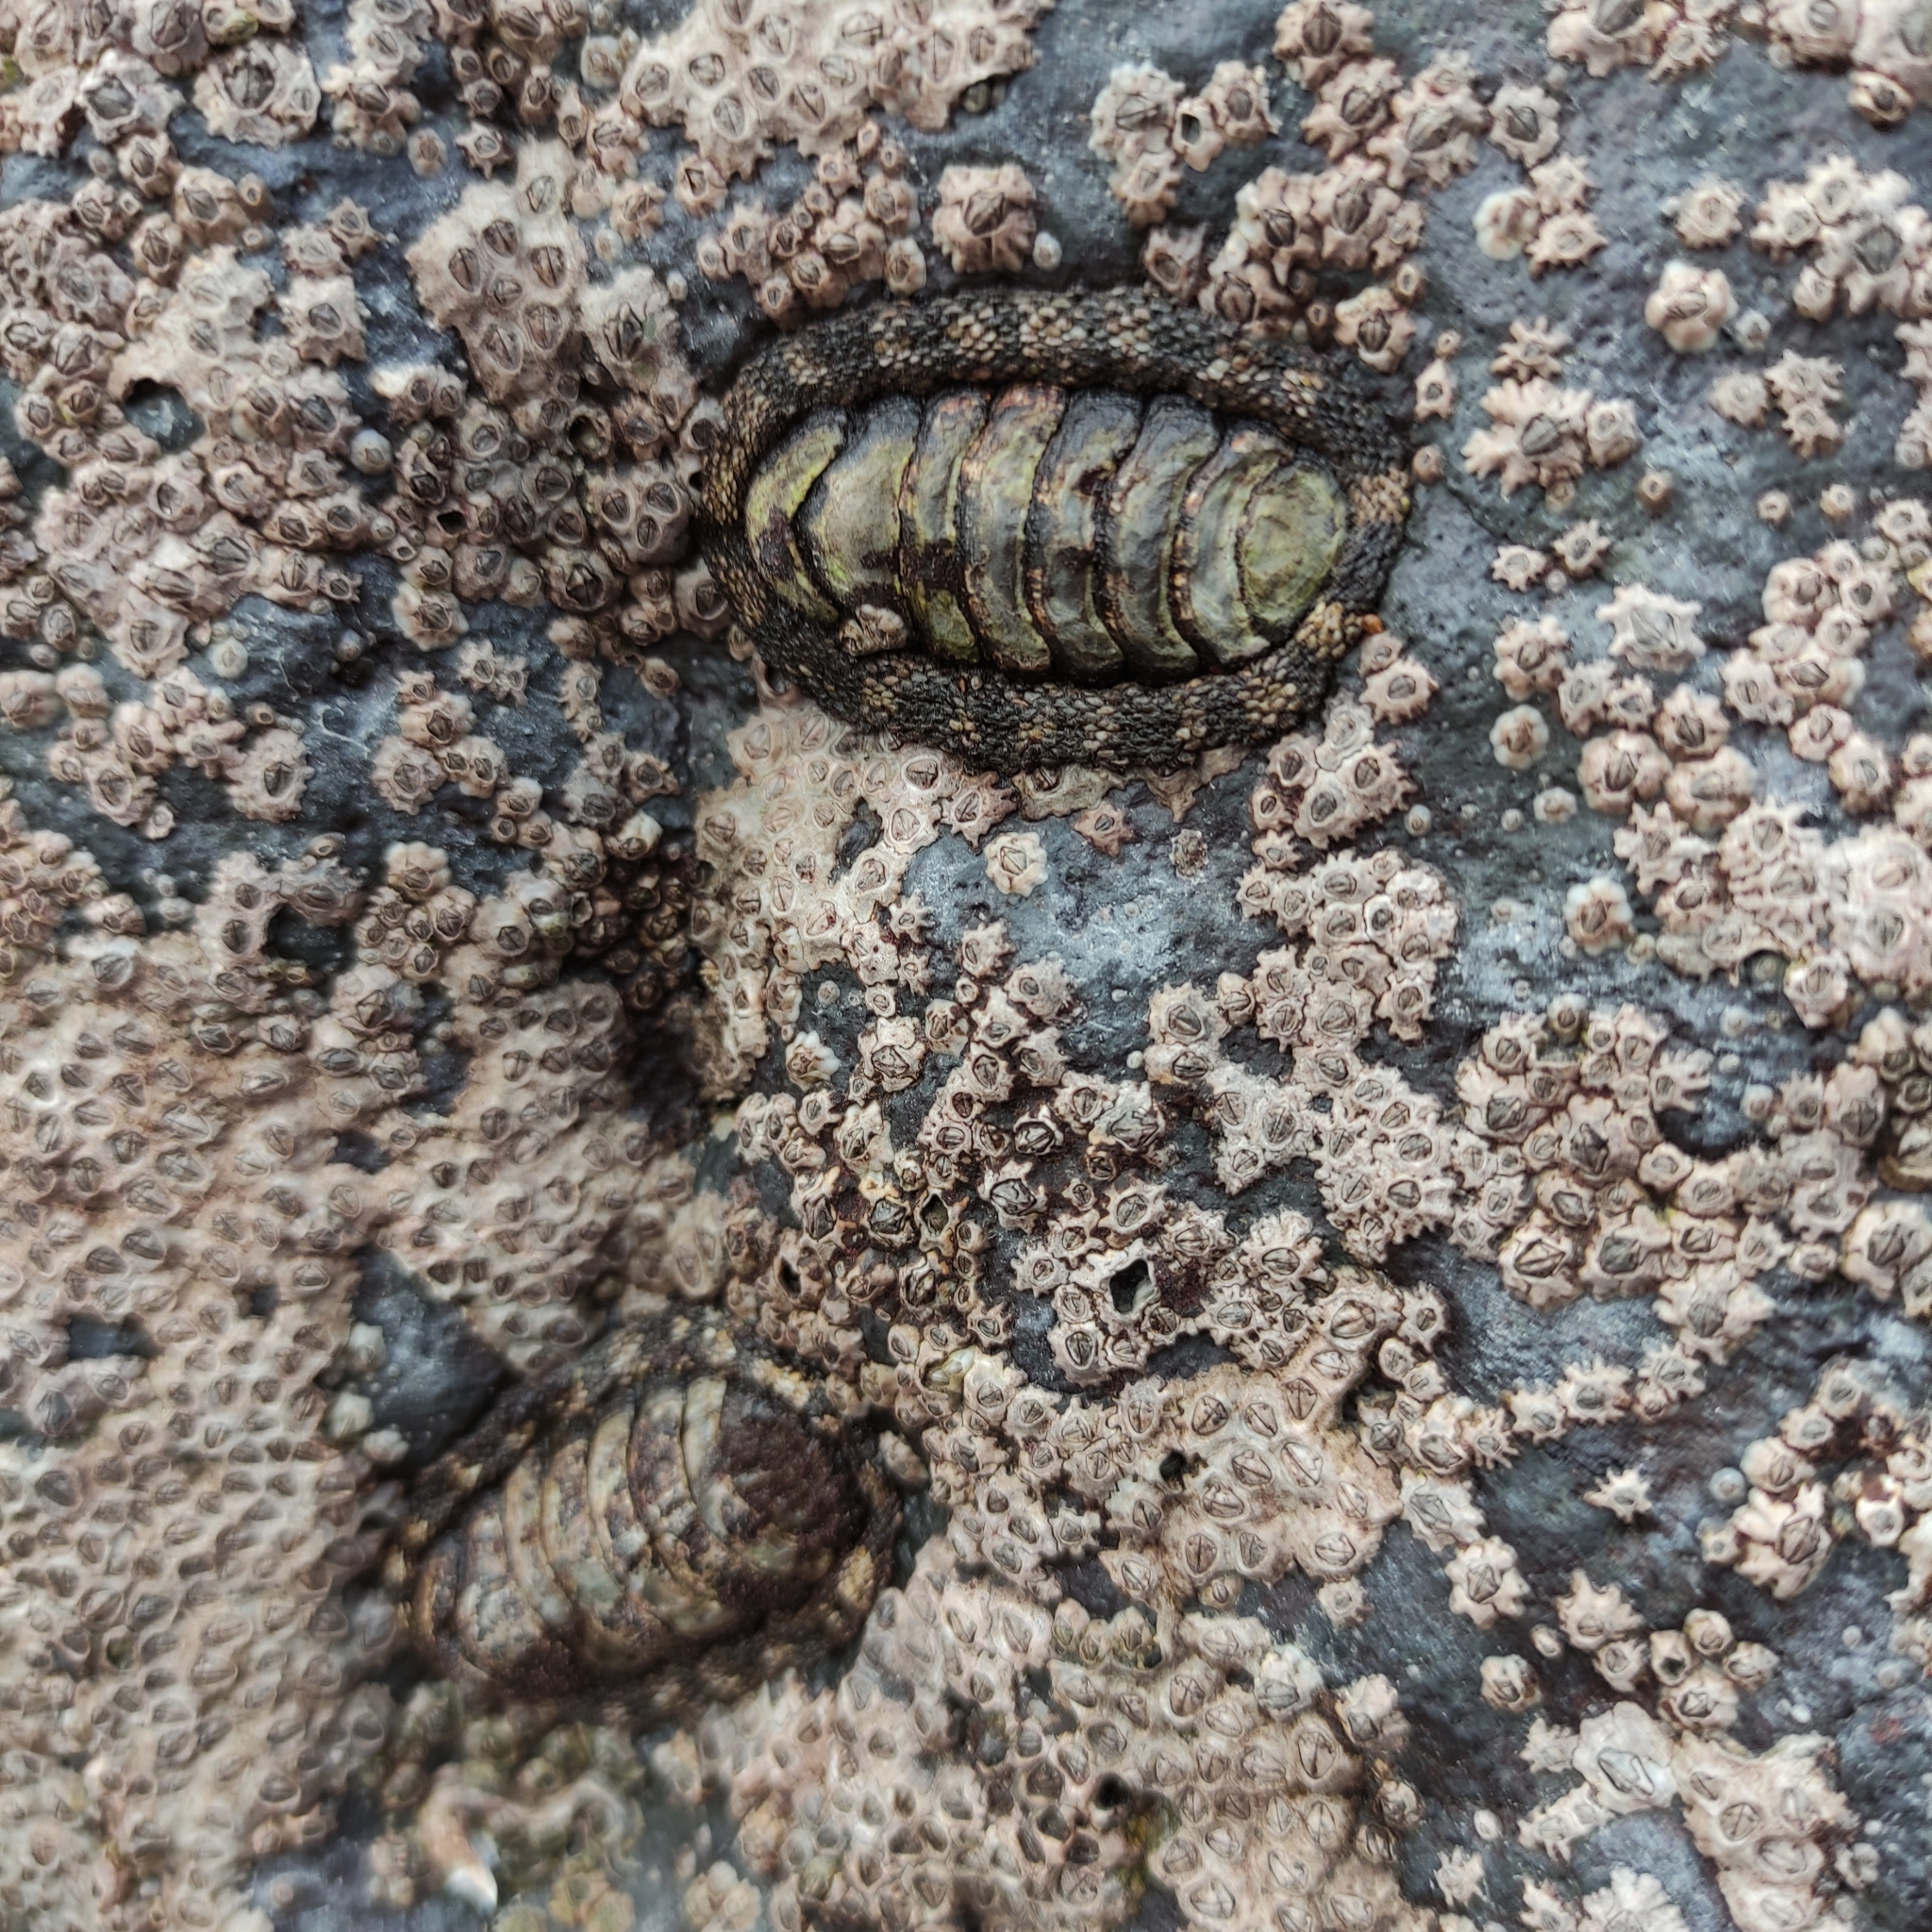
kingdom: Animalia
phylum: Mollusca
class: Polyplacophora
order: Chitonida
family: Chitonidae
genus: Sypharochiton
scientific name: Sypharochiton pelliserpentis
